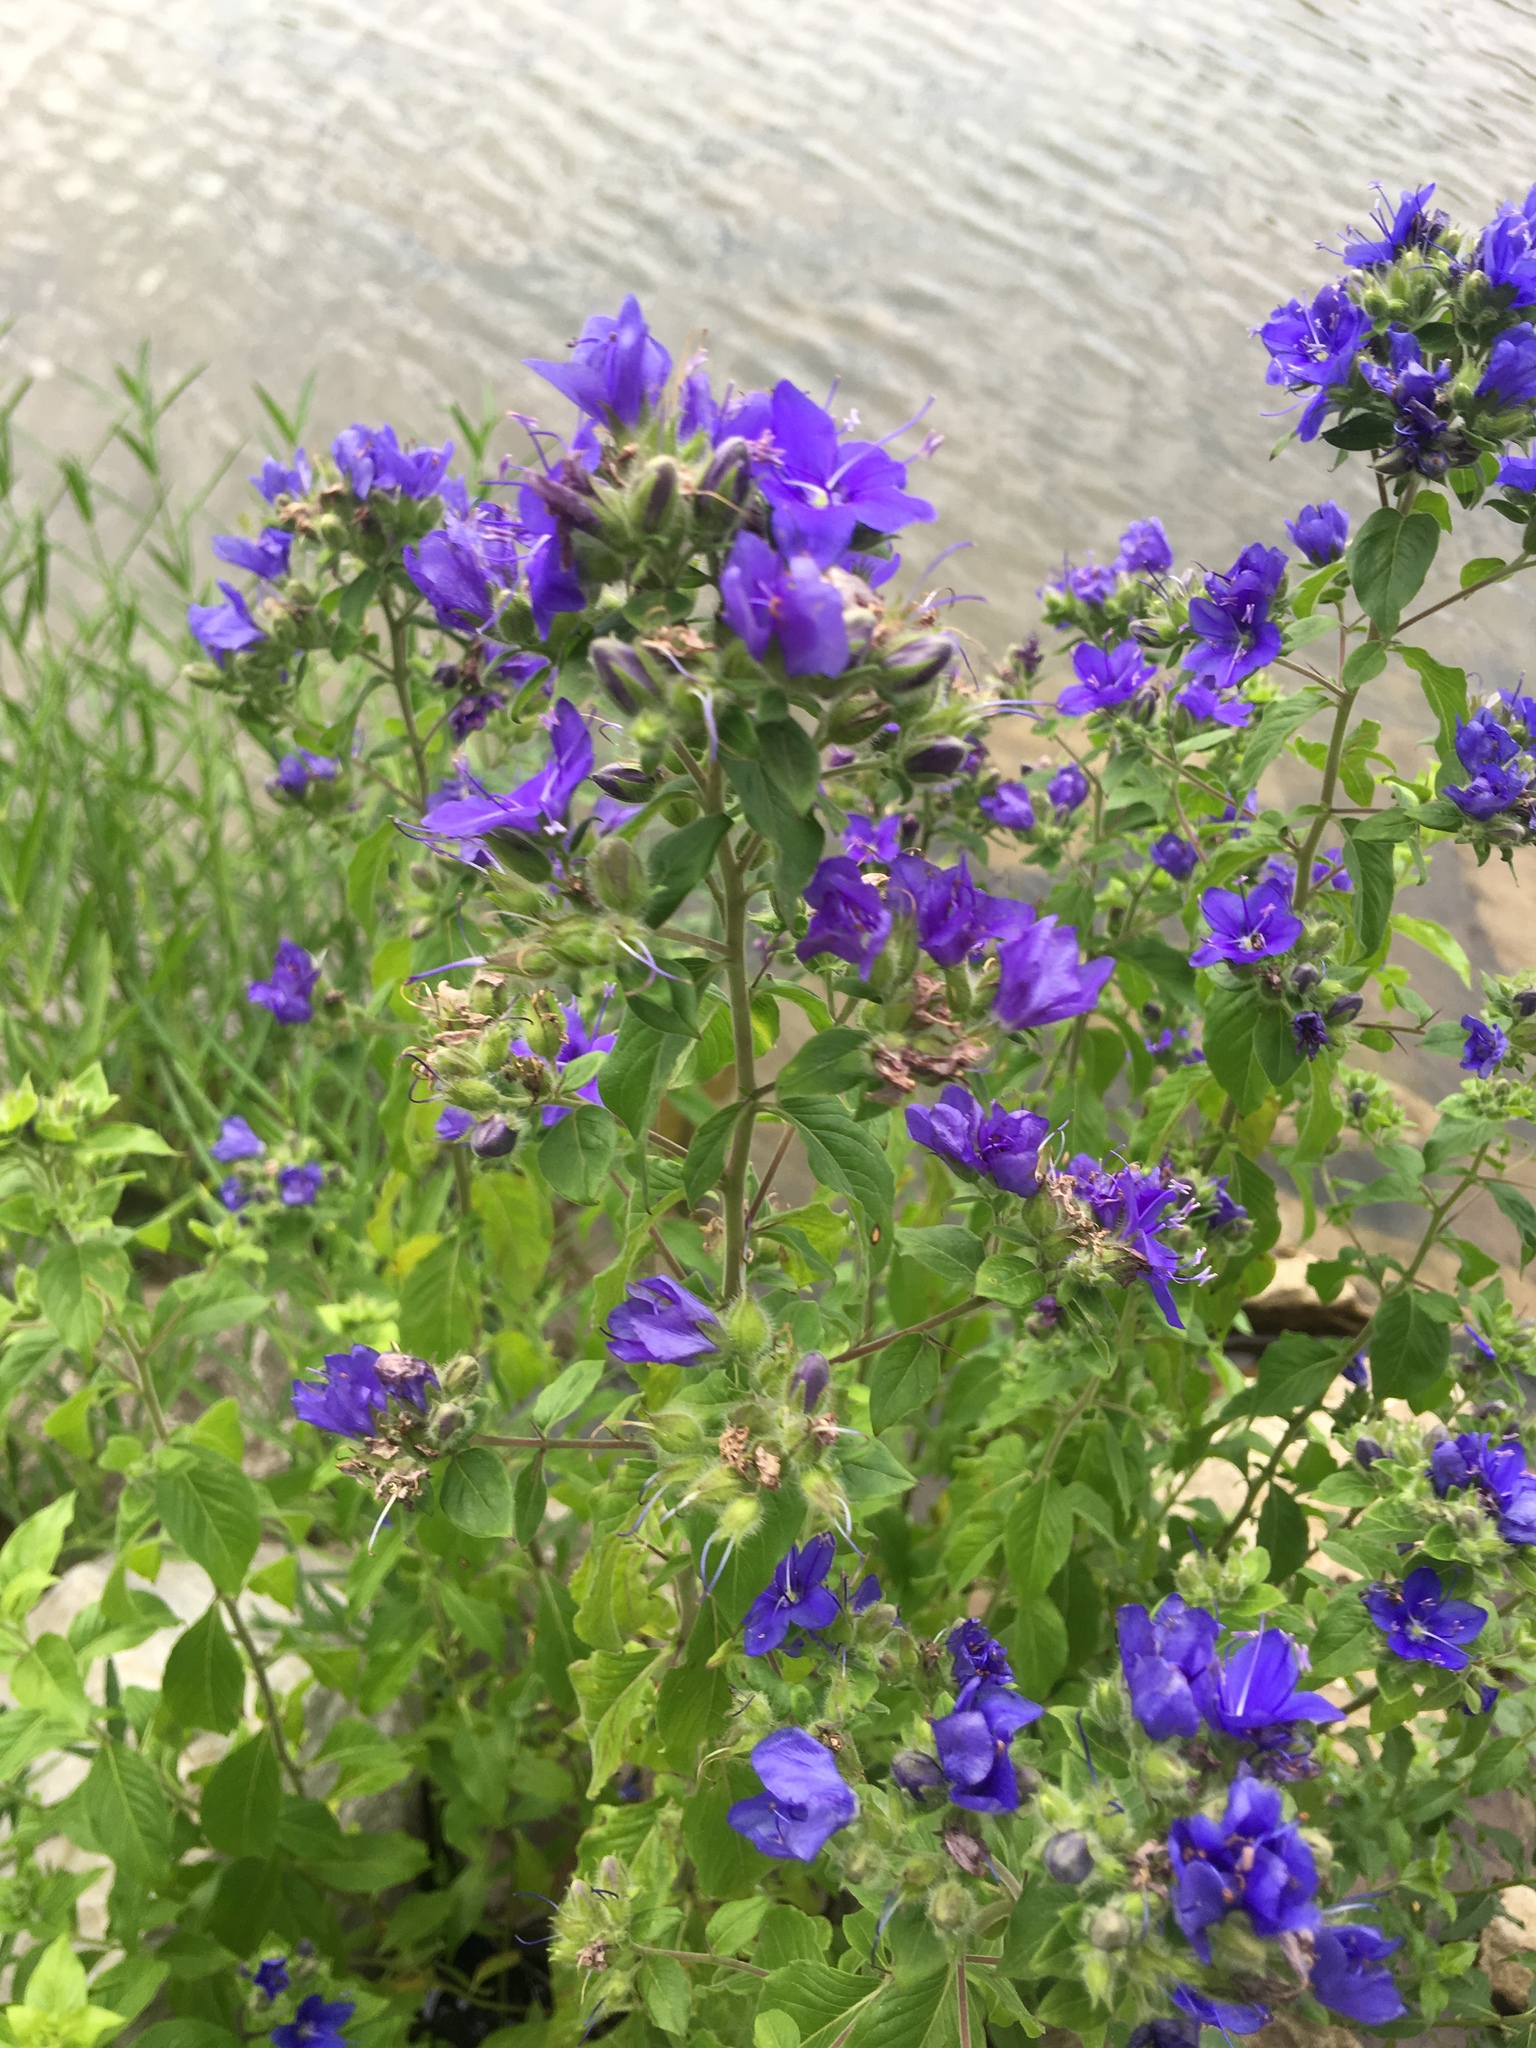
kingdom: Plantae
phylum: Tracheophyta
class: Magnoliopsida
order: Solanales
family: Hydroleaceae
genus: Hydrolea
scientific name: Hydrolea ovata
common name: Ovate false fiddleleaf
